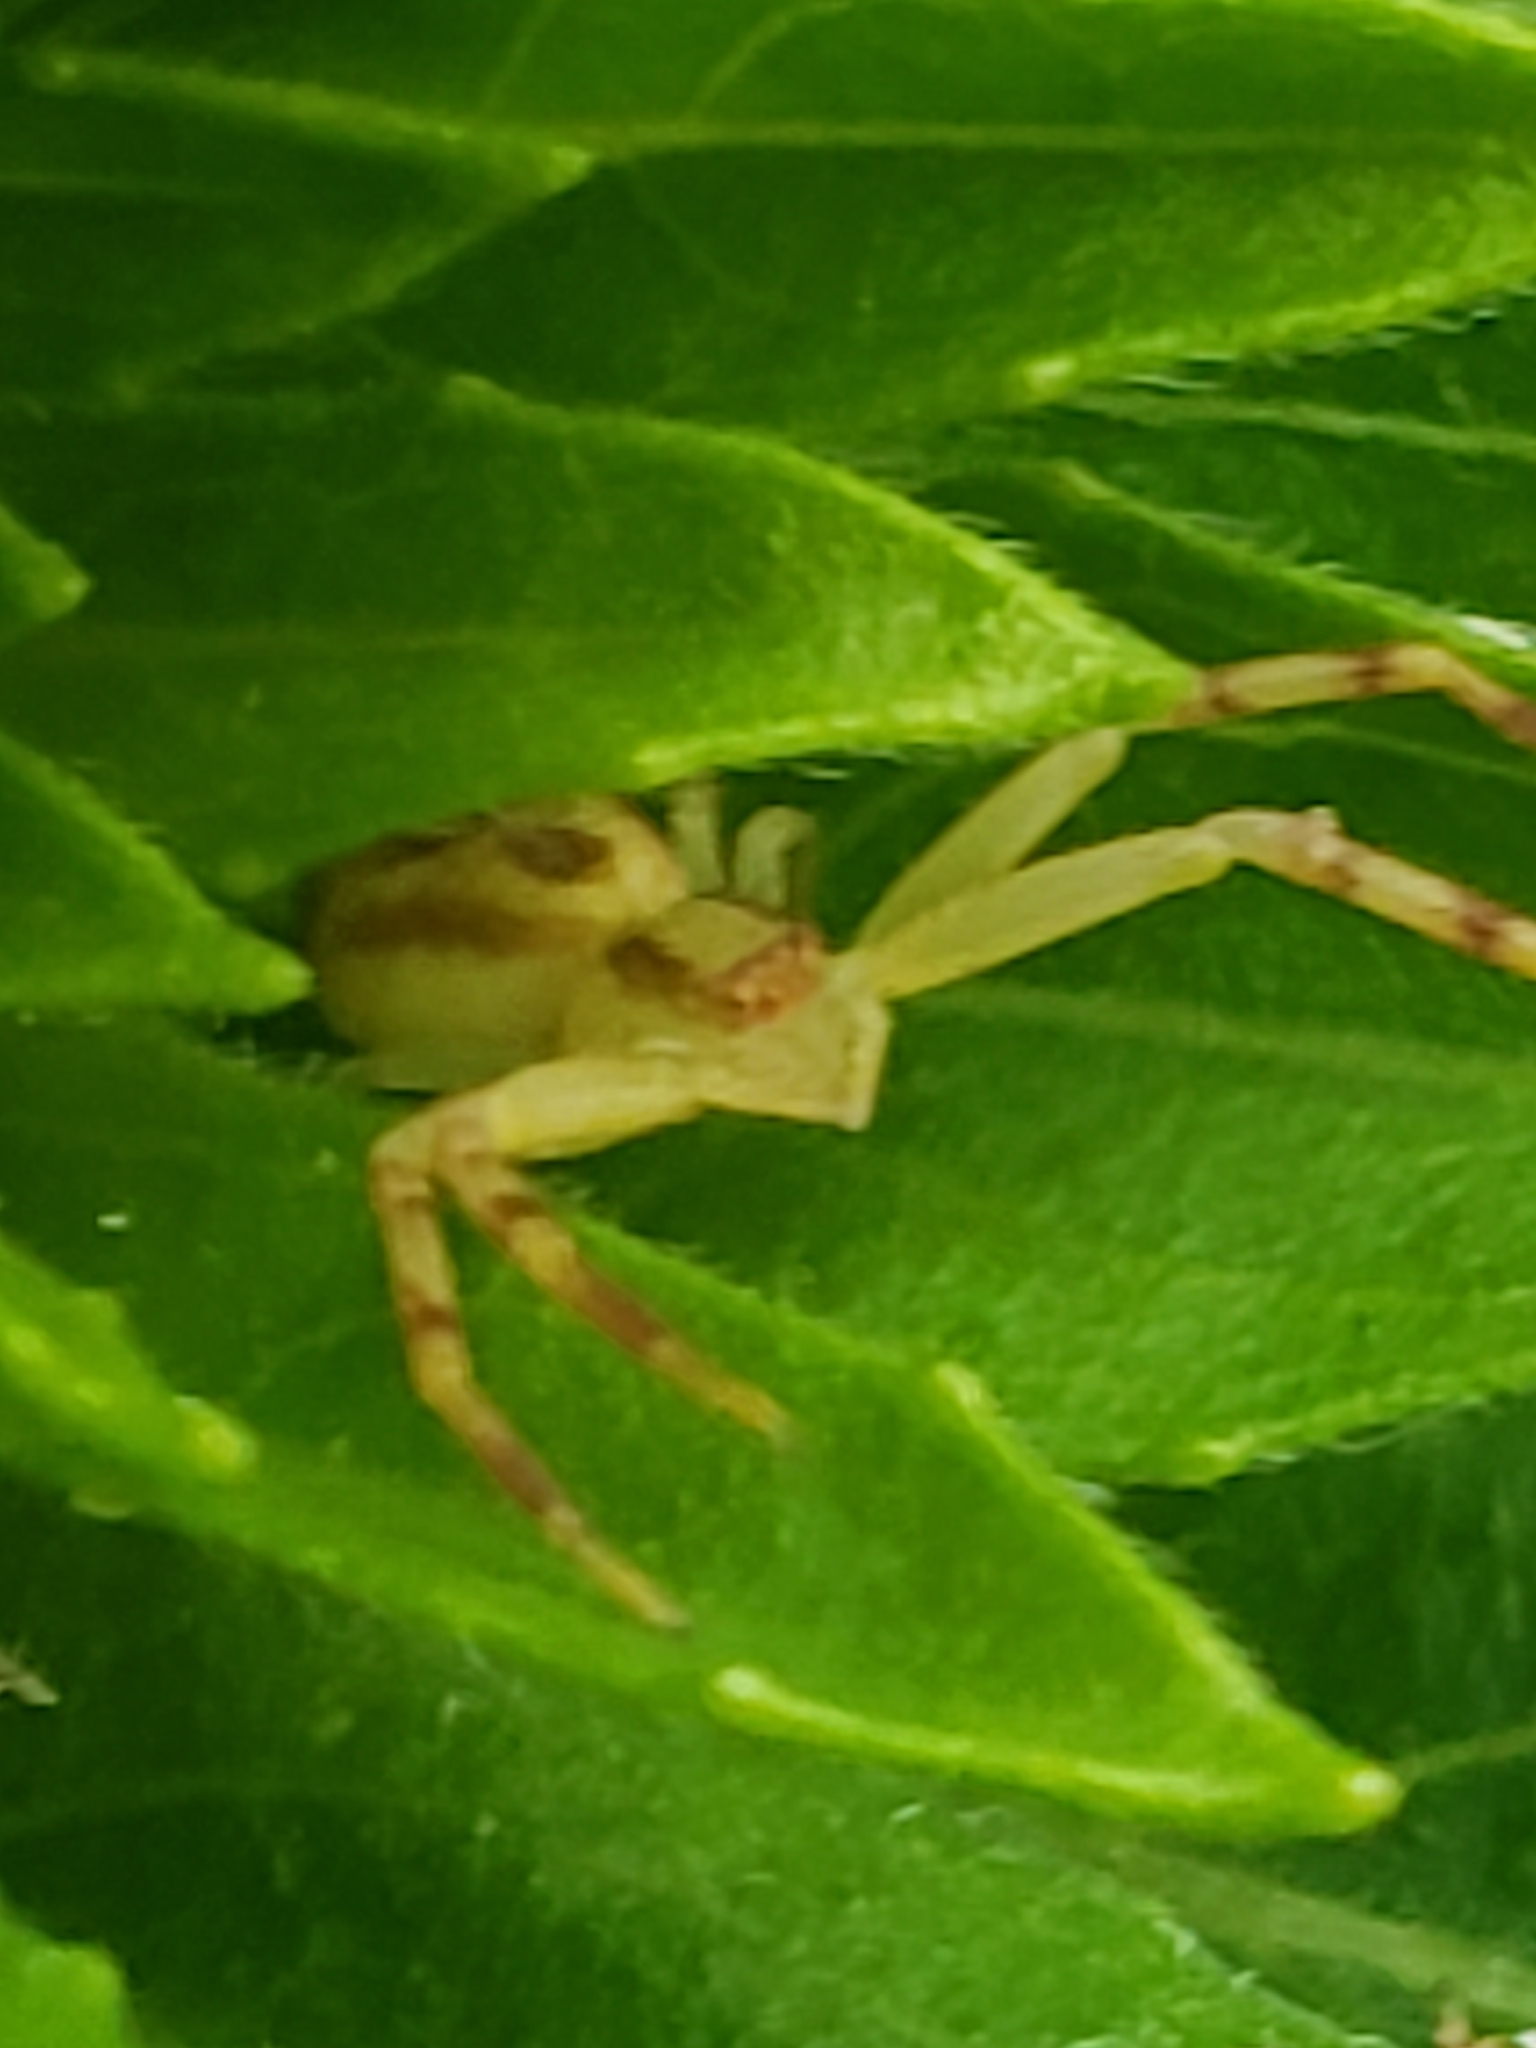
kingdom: Animalia
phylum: Arthropoda
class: Arachnida
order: Araneae
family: Thomisidae
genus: Mecaphesa
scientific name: Mecaphesa asperata
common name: Crab spiders
